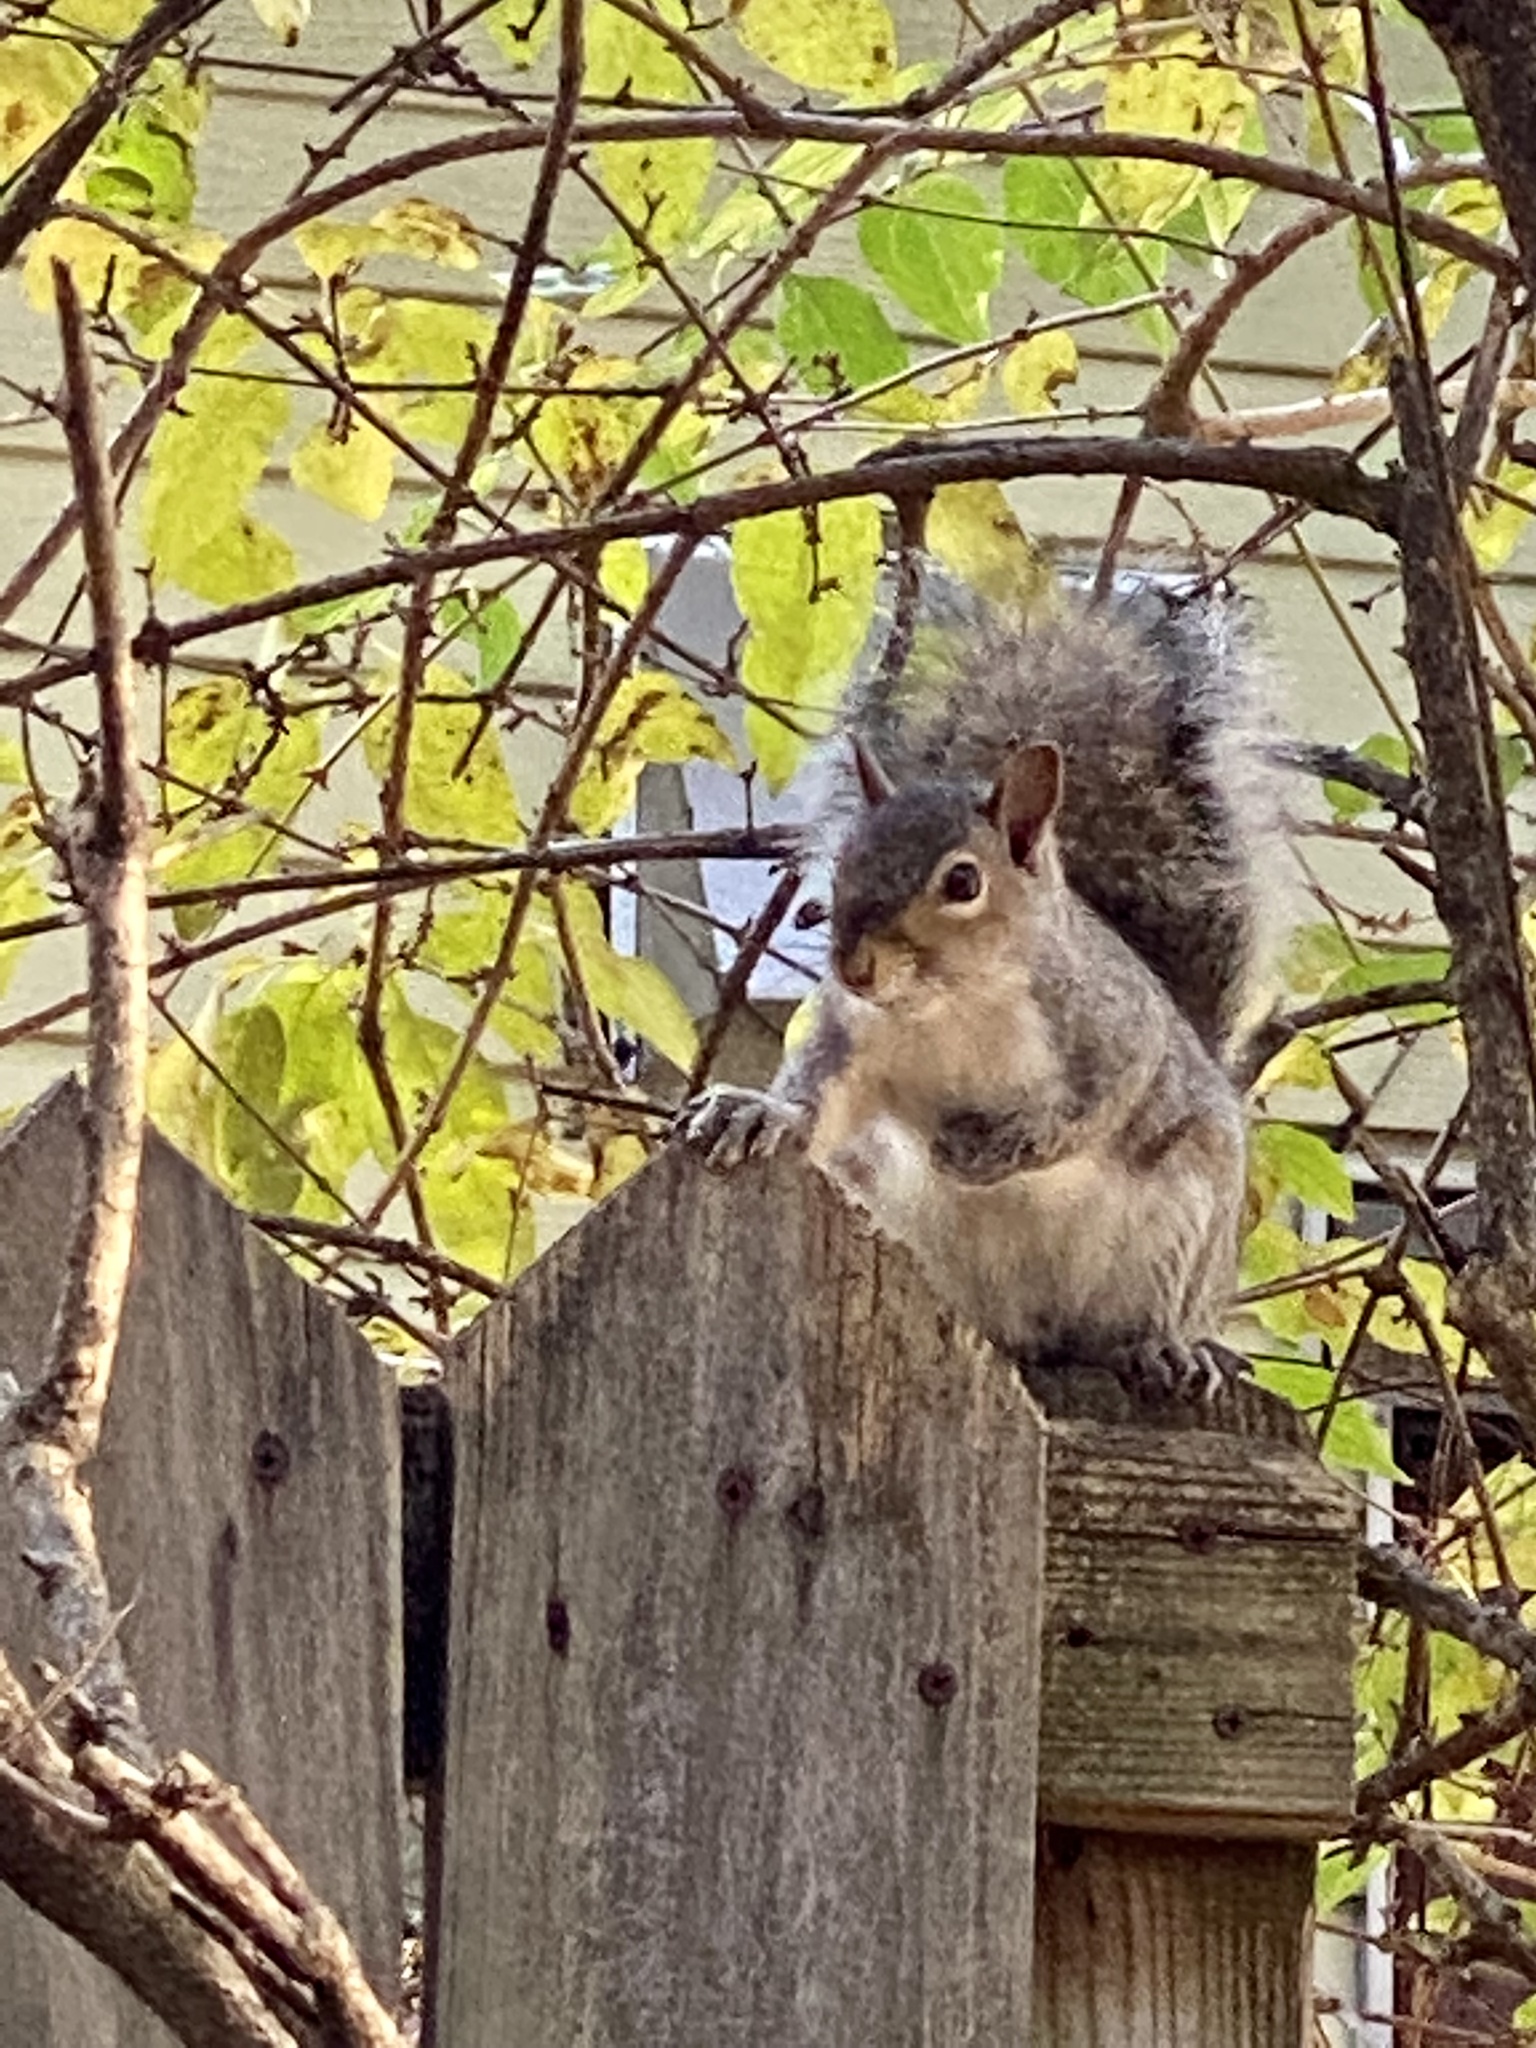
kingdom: Animalia
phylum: Chordata
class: Mammalia
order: Rodentia
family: Sciuridae
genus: Sciurus
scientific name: Sciurus carolinensis
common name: Eastern gray squirrel
